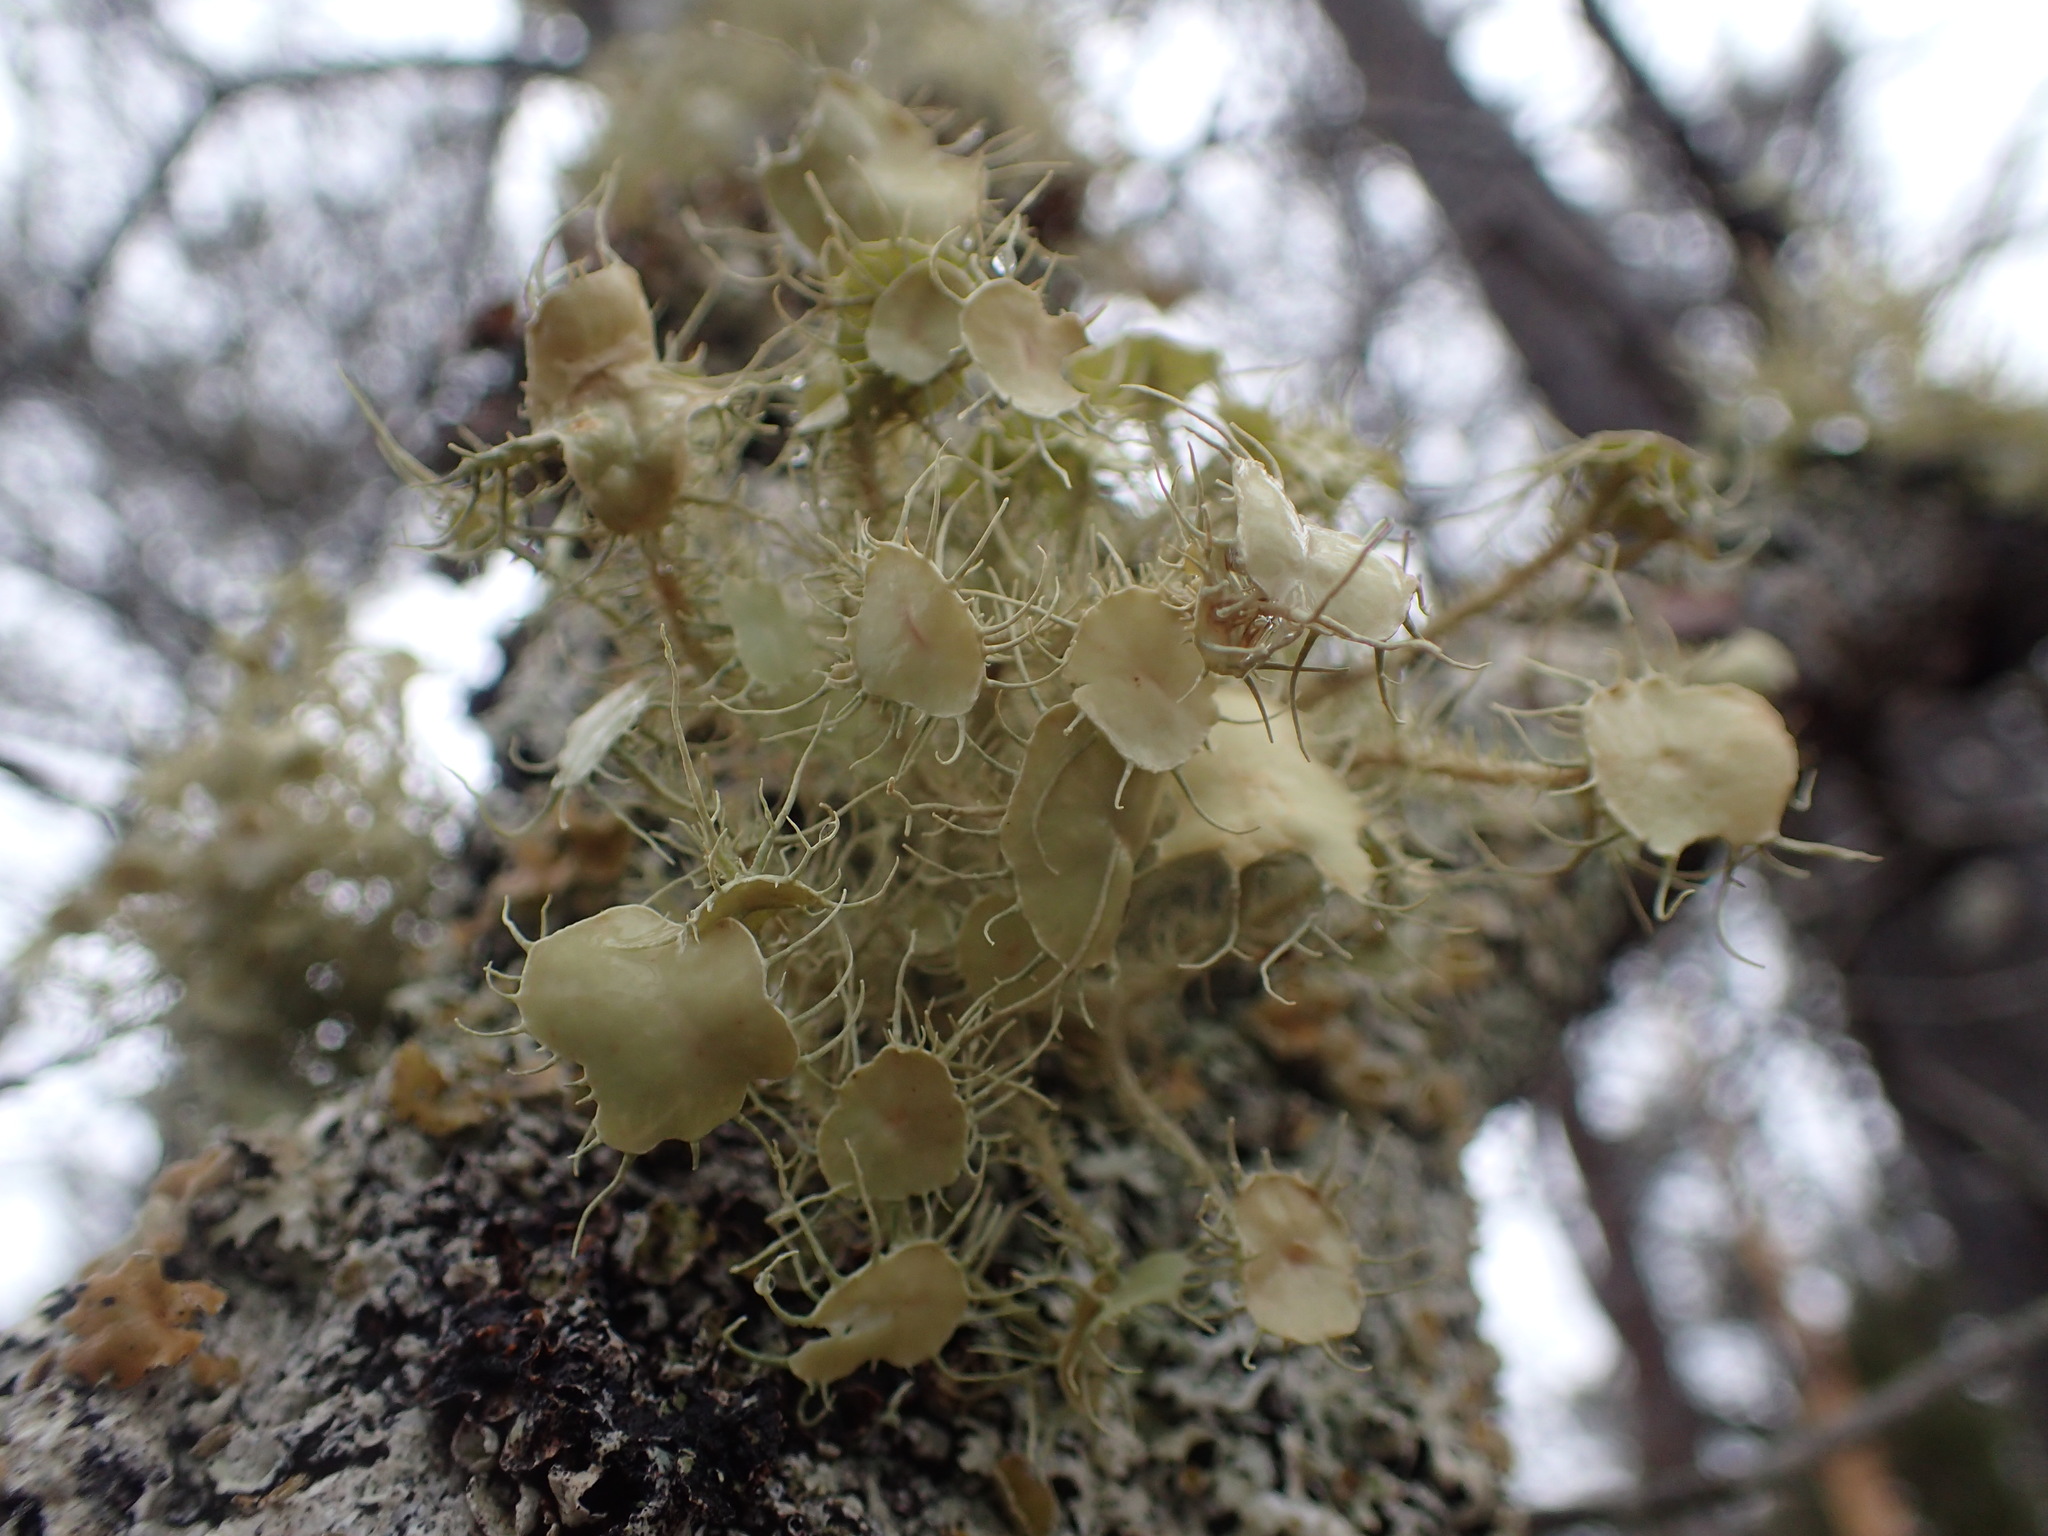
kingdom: Fungi
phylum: Ascomycota
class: Lecanoromycetes
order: Lecanorales
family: Parmeliaceae
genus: Usnea
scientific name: Usnea strigosa
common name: Bushy beard lichen
